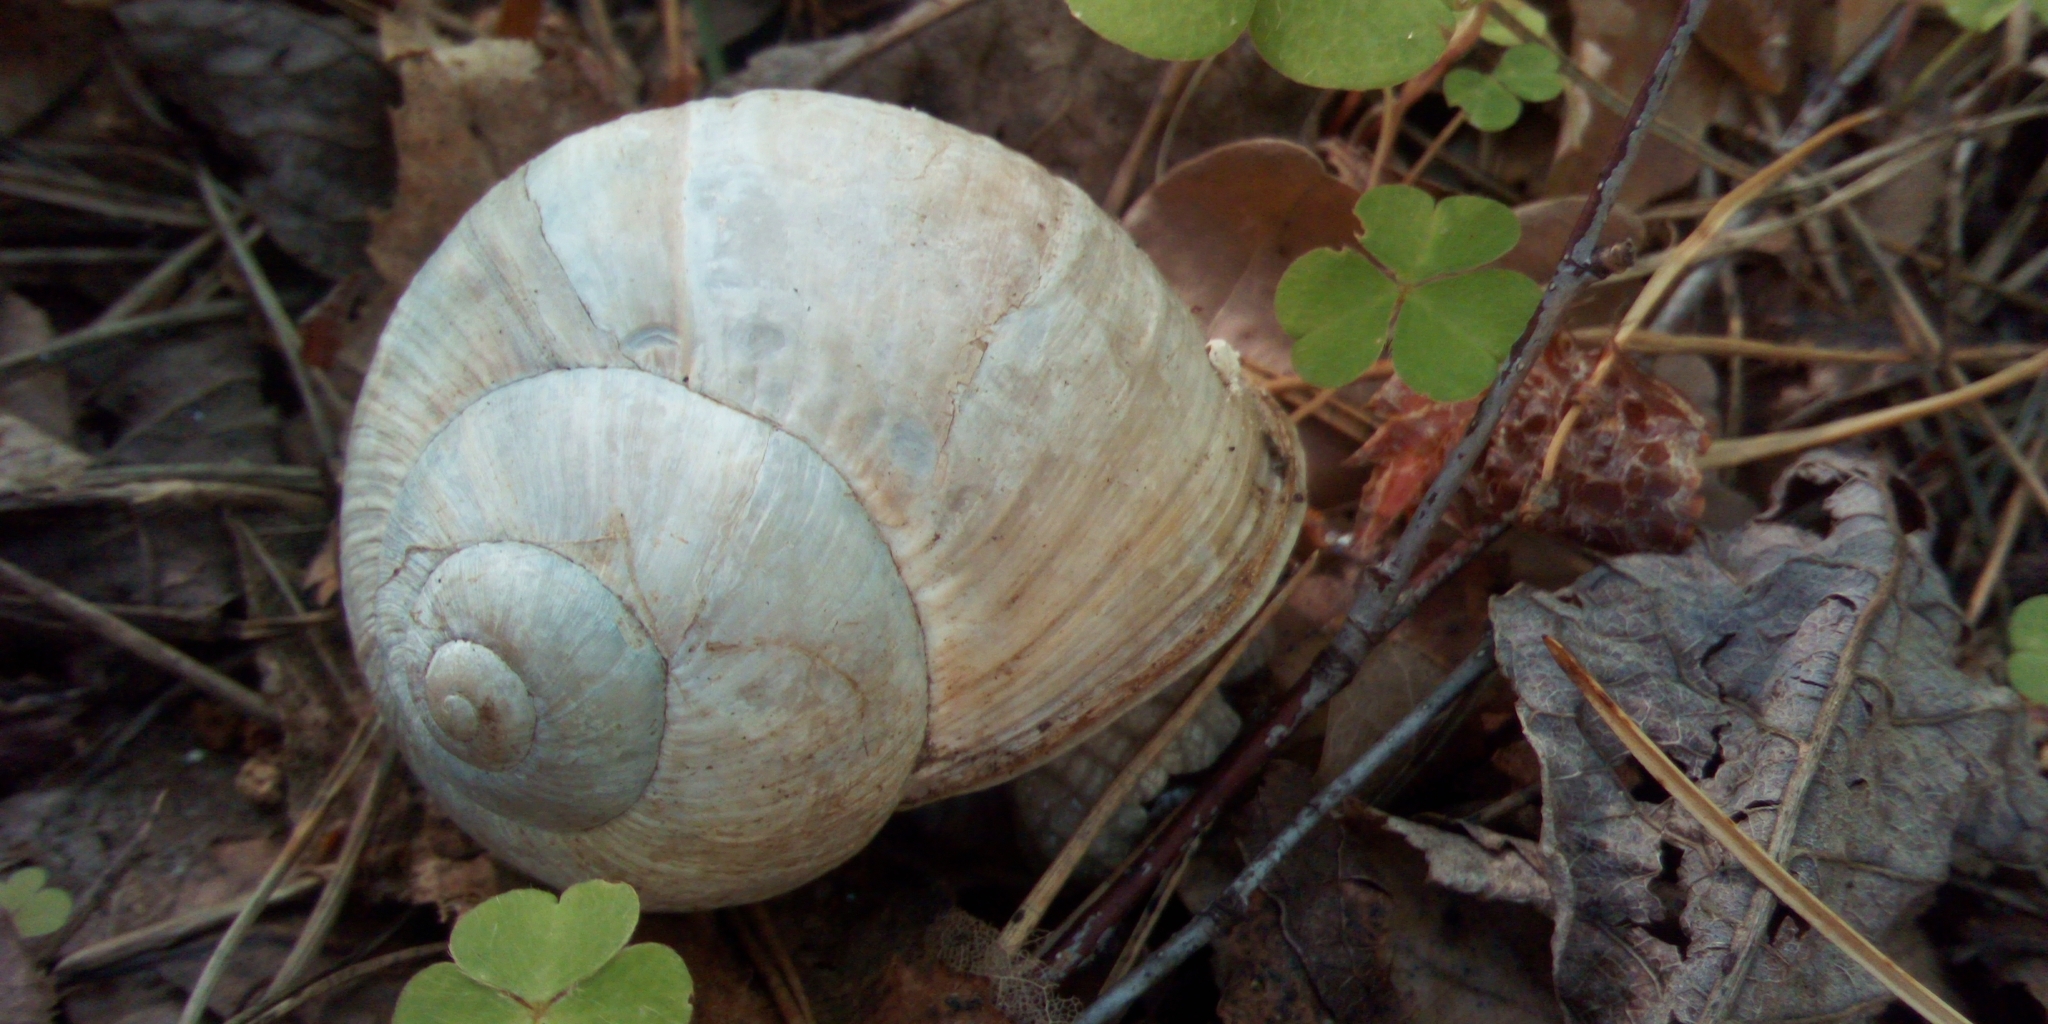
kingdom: Animalia
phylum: Mollusca
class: Gastropoda
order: Stylommatophora
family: Helicidae
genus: Helix
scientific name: Helix pomatia
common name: Roman snail
